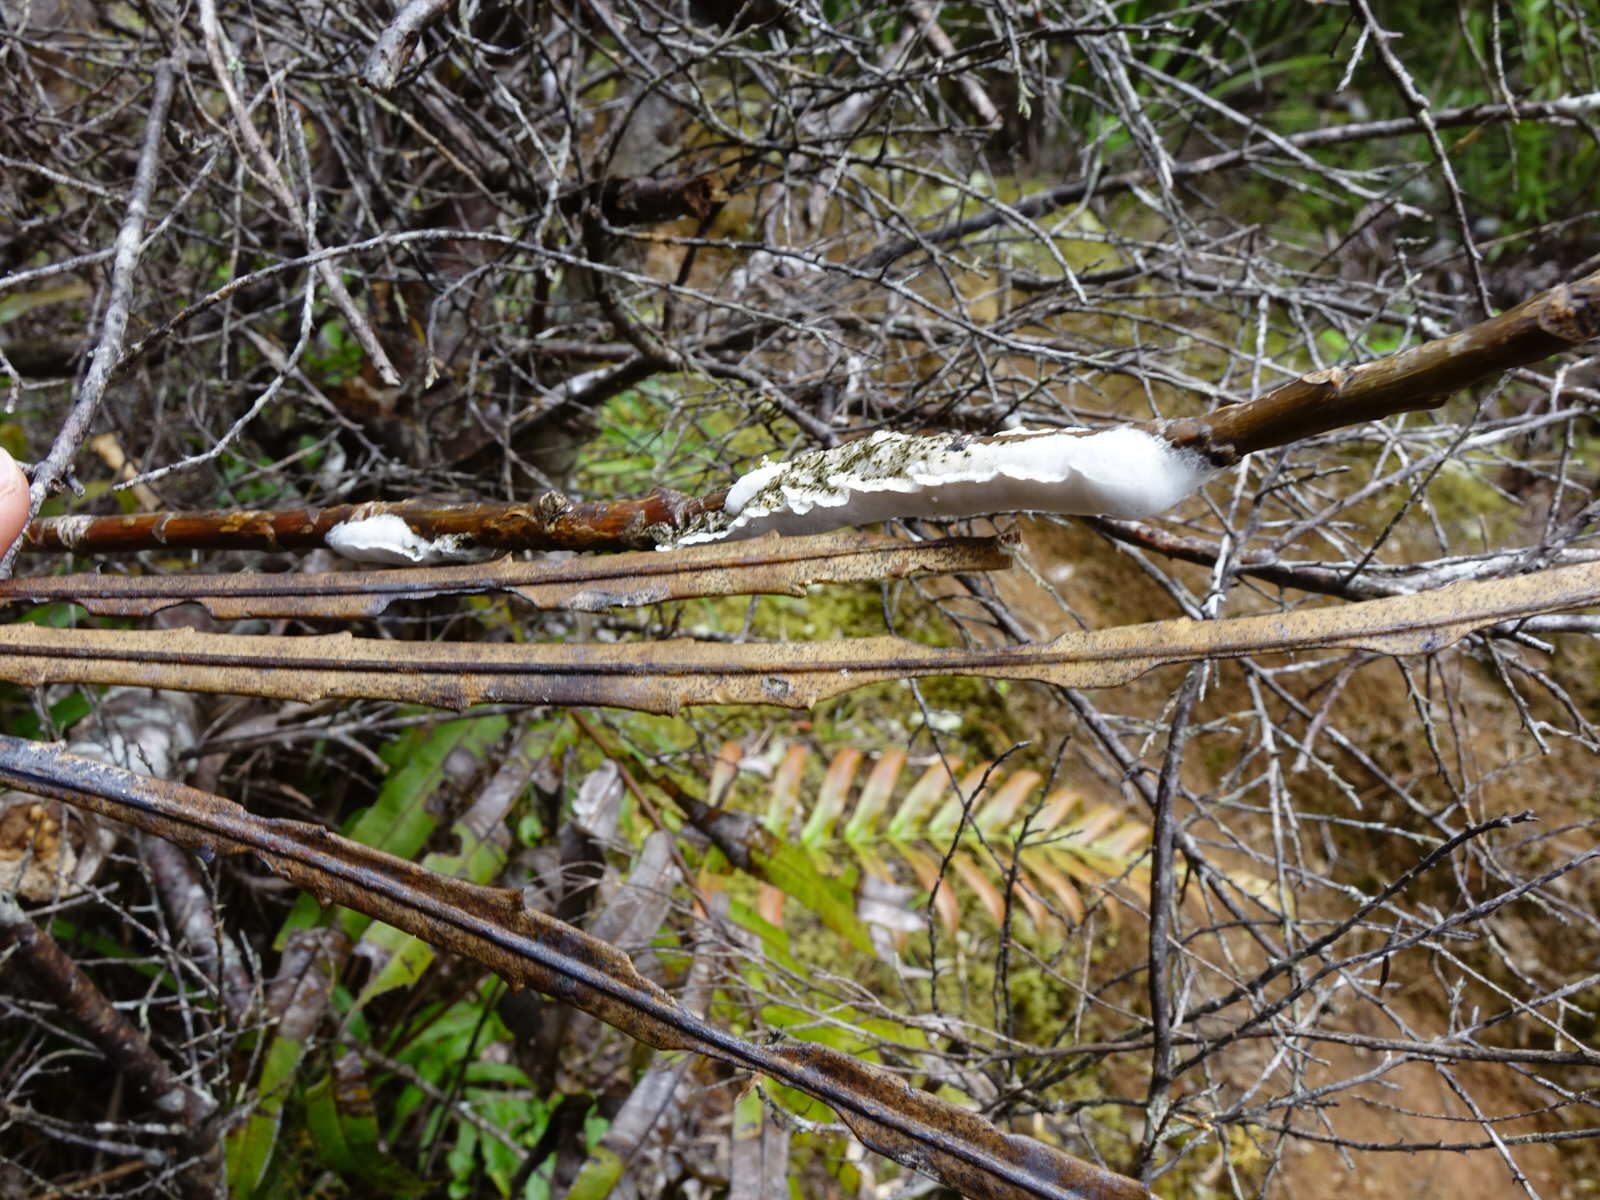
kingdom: Fungi
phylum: Basidiomycota
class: Pucciniomycetes
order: Septobasidiales
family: Septobasidiaceae
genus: Septobasidium
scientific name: Septobasidium simmondsii
